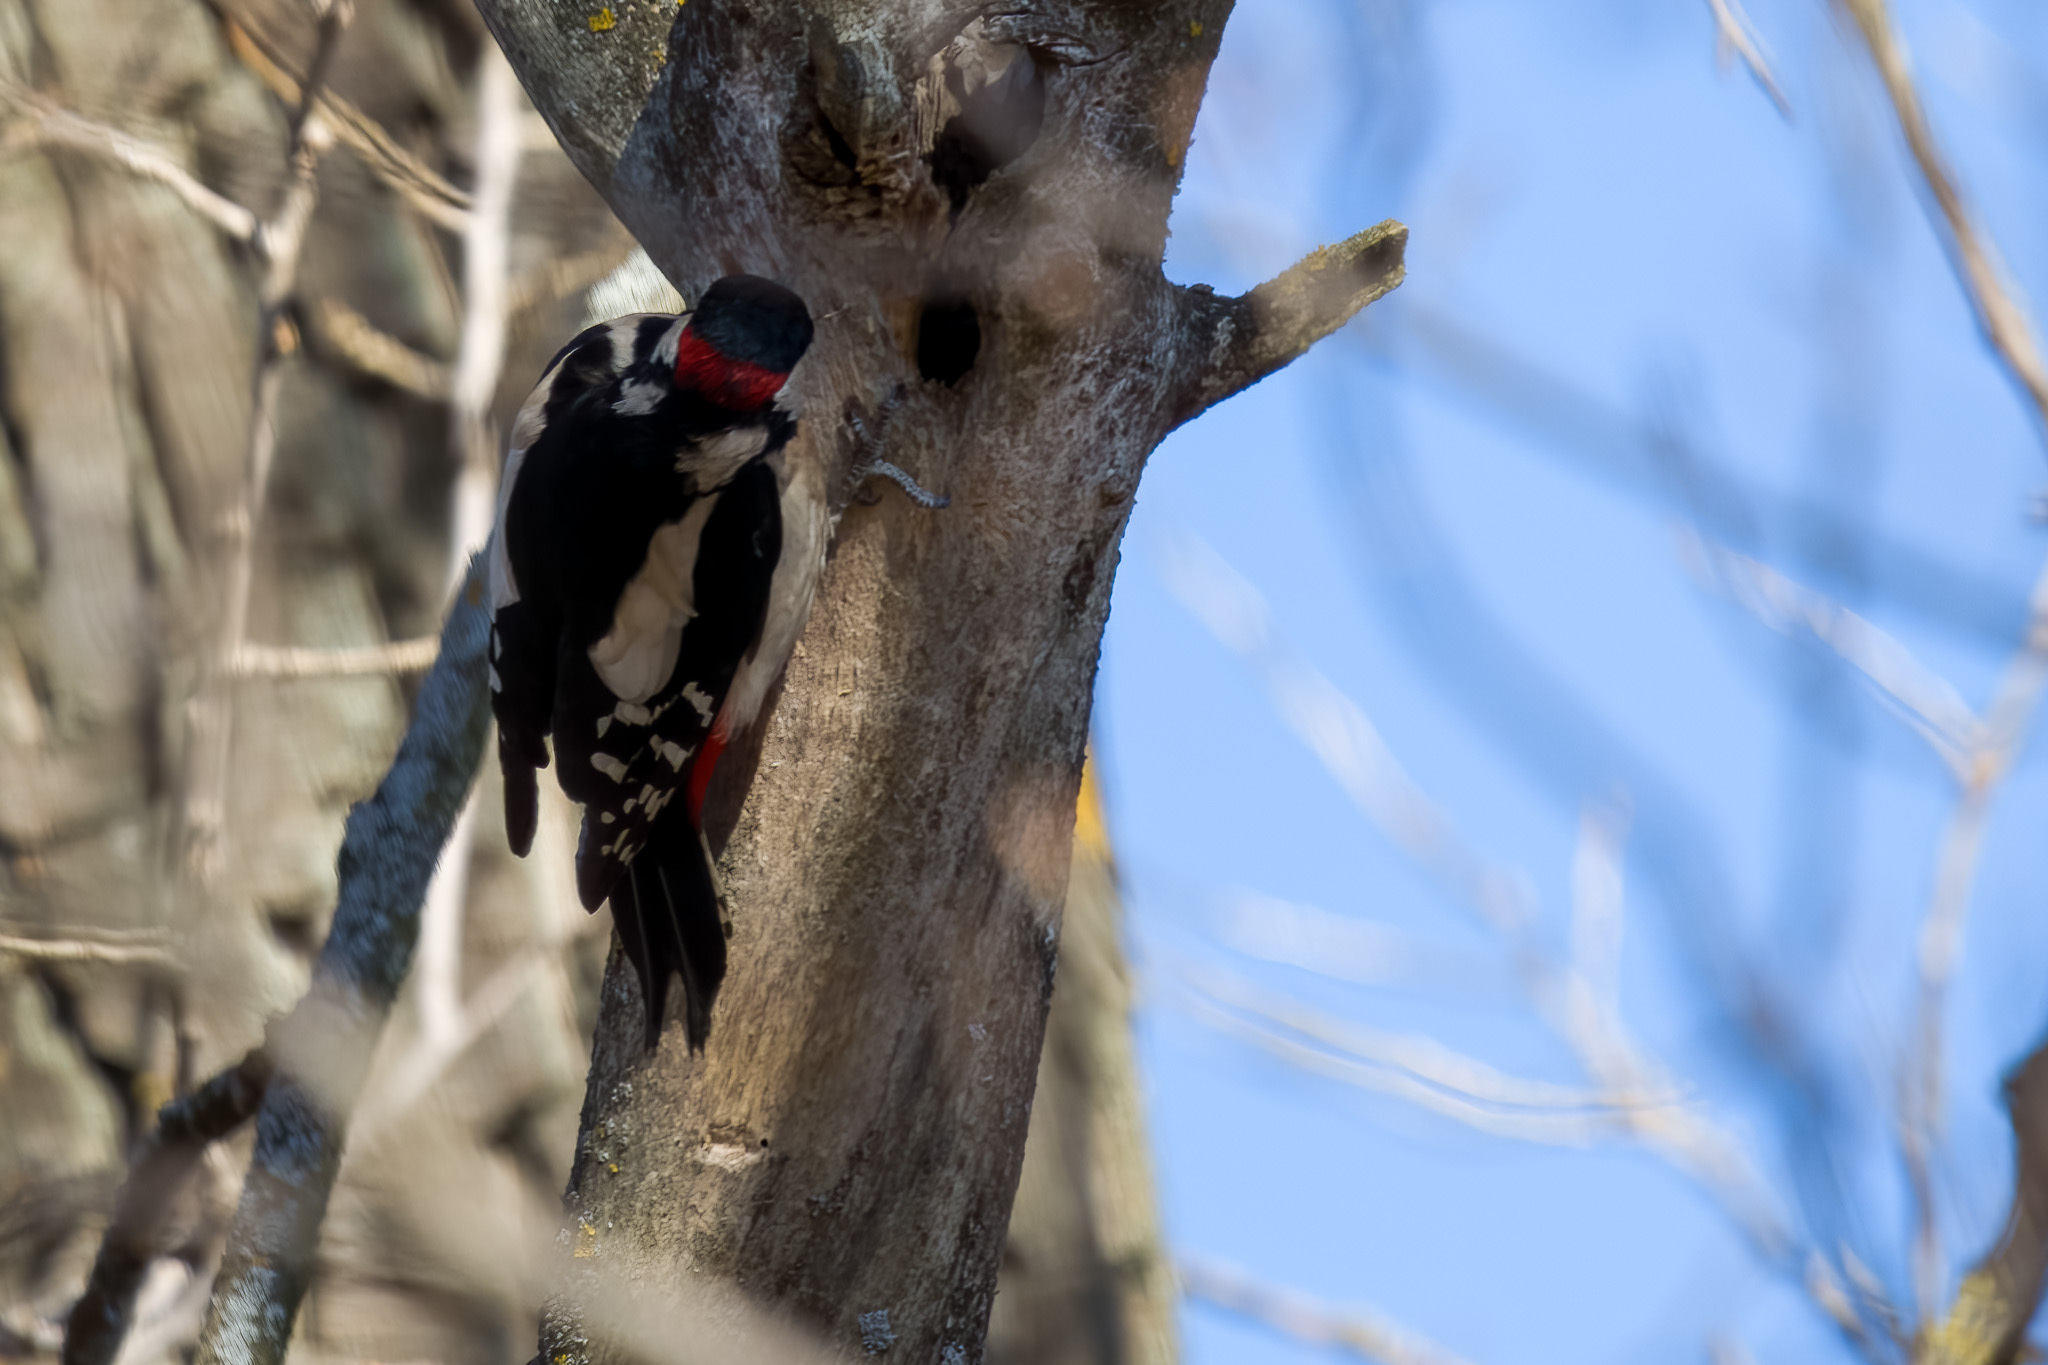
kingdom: Animalia
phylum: Chordata
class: Aves
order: Piciformes
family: Picidae
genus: Dendrocopos
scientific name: Dendrocopos major
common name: Great spotted woodpecker
